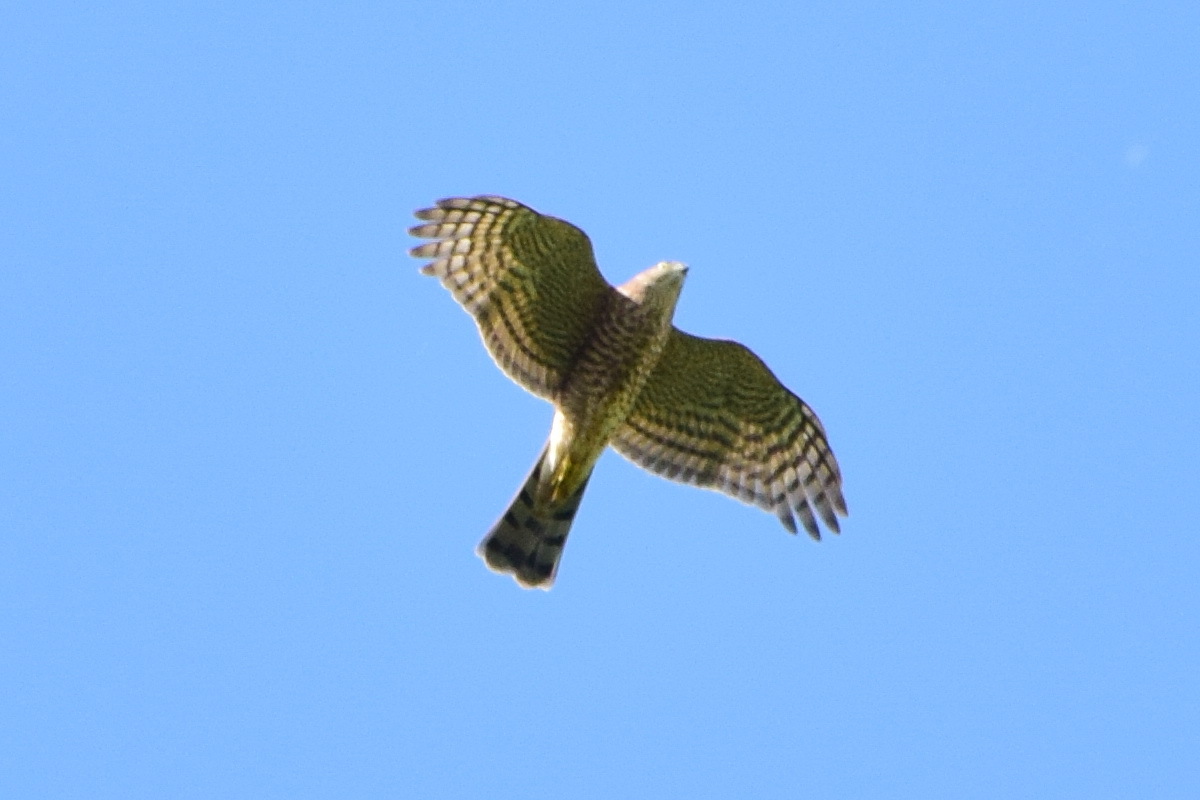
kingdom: Animalia
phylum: Chordata
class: Aves
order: Accipitriformes
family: Accipitridae
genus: Accipiter
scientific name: Accipiter nisus
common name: Eurasian sparrowhawk
